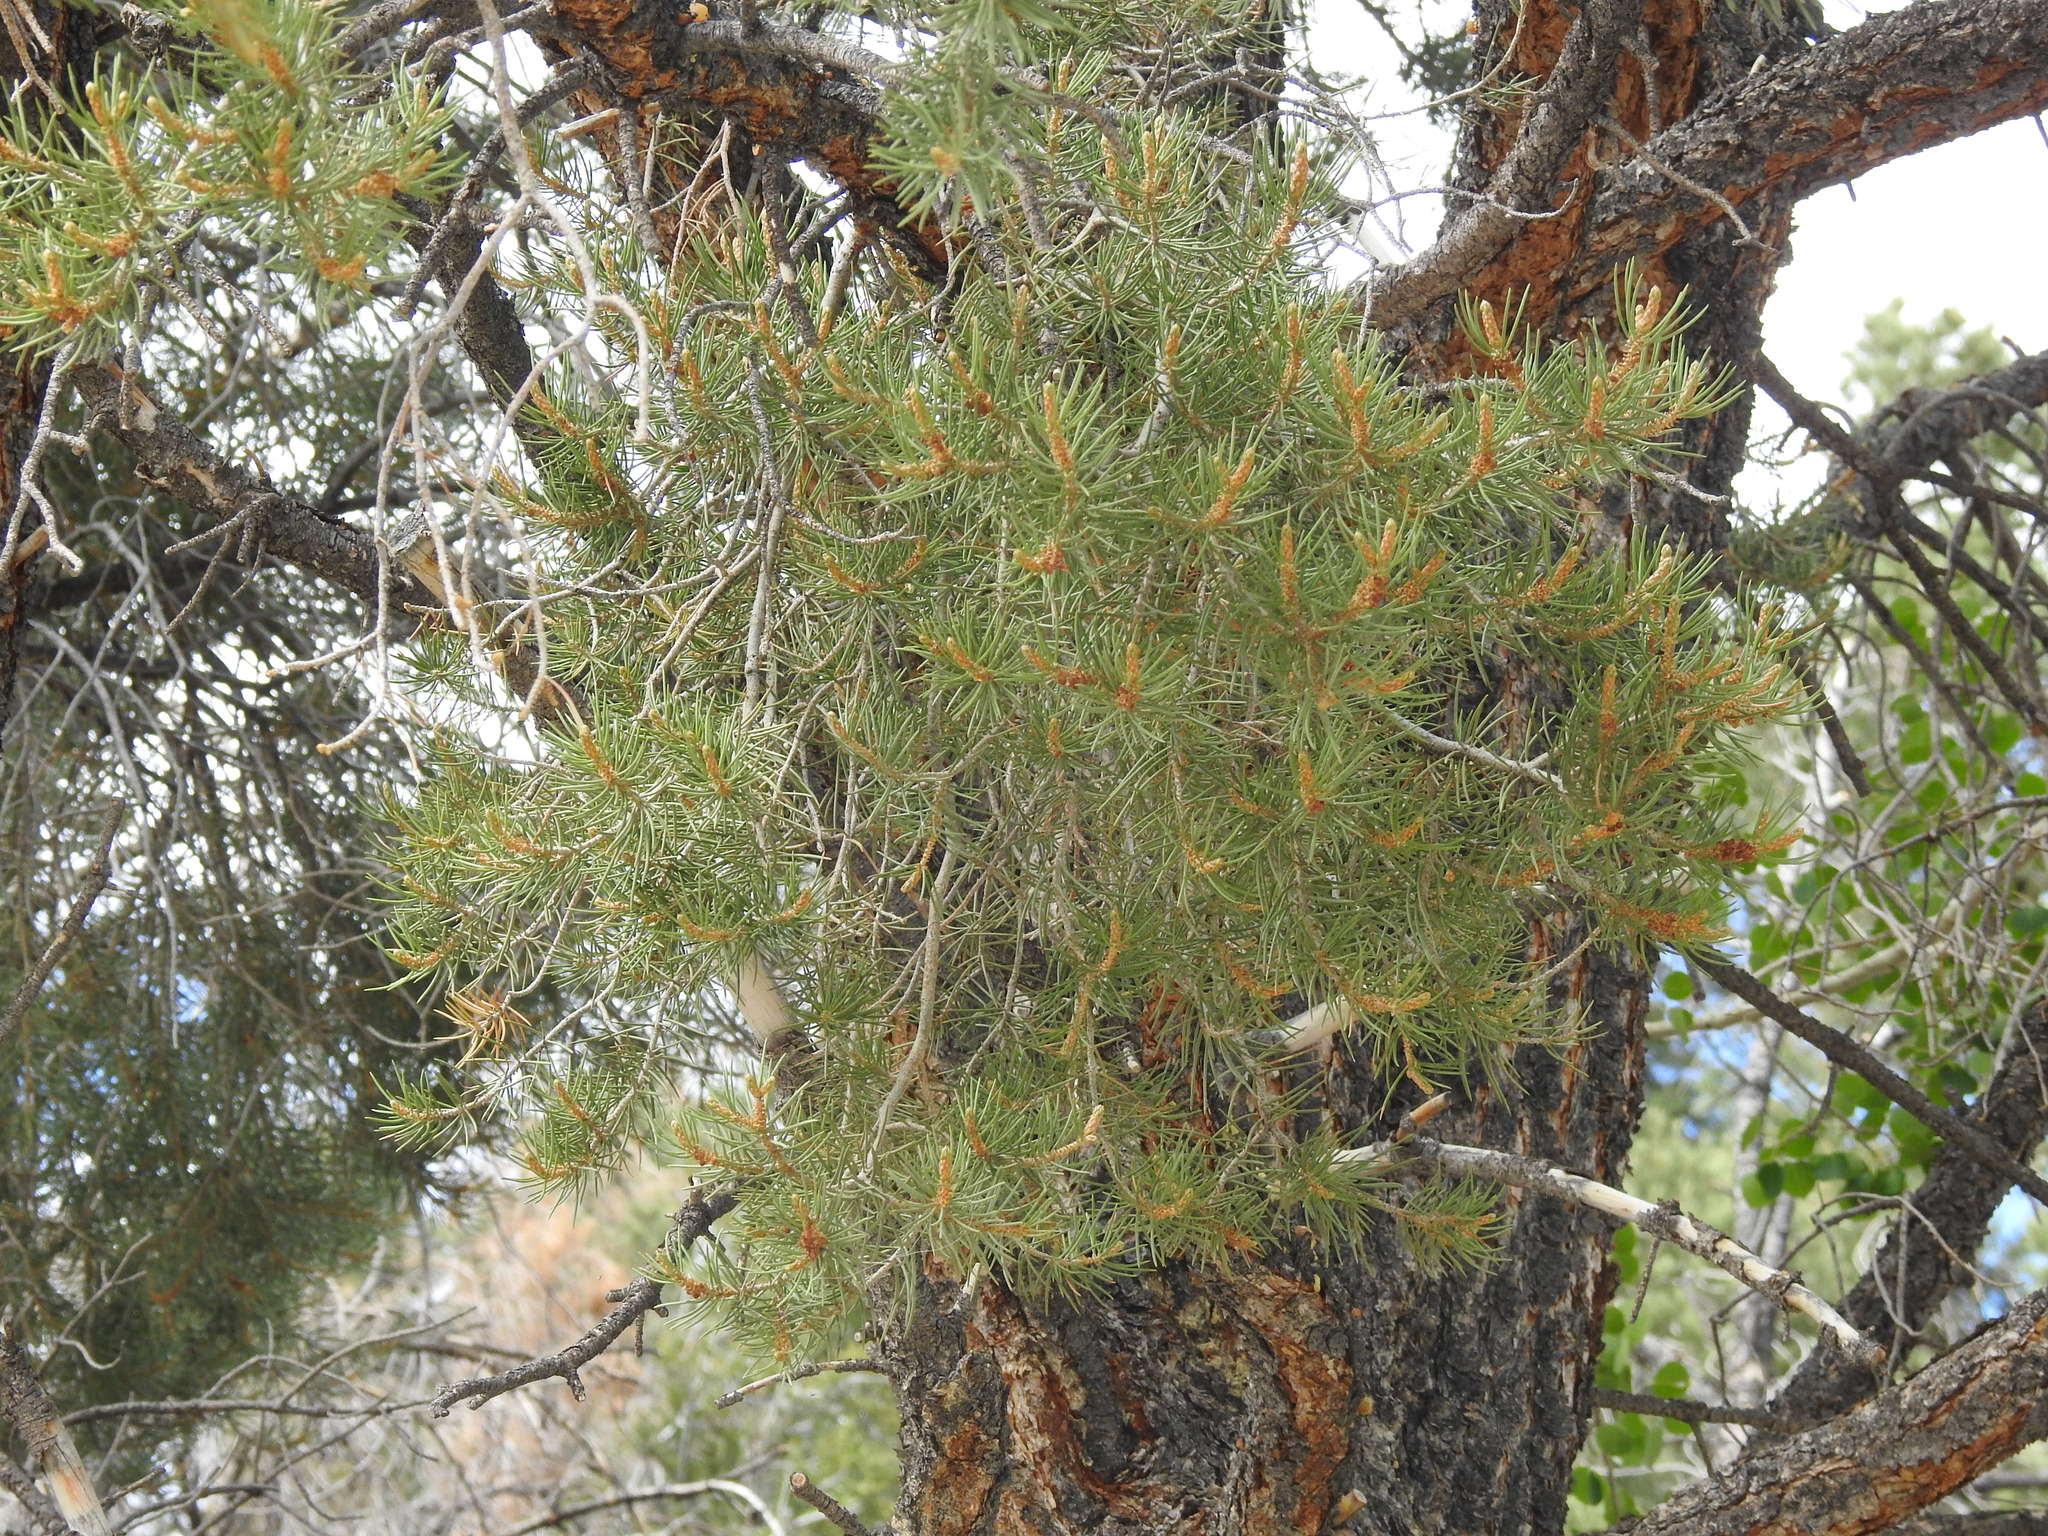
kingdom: Plantae
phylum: Tracheophyta
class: Pinopsida
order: Pinales
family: Pinaceae
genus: Pinus
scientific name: Pinus monophylla
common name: One-leaved nut pine
